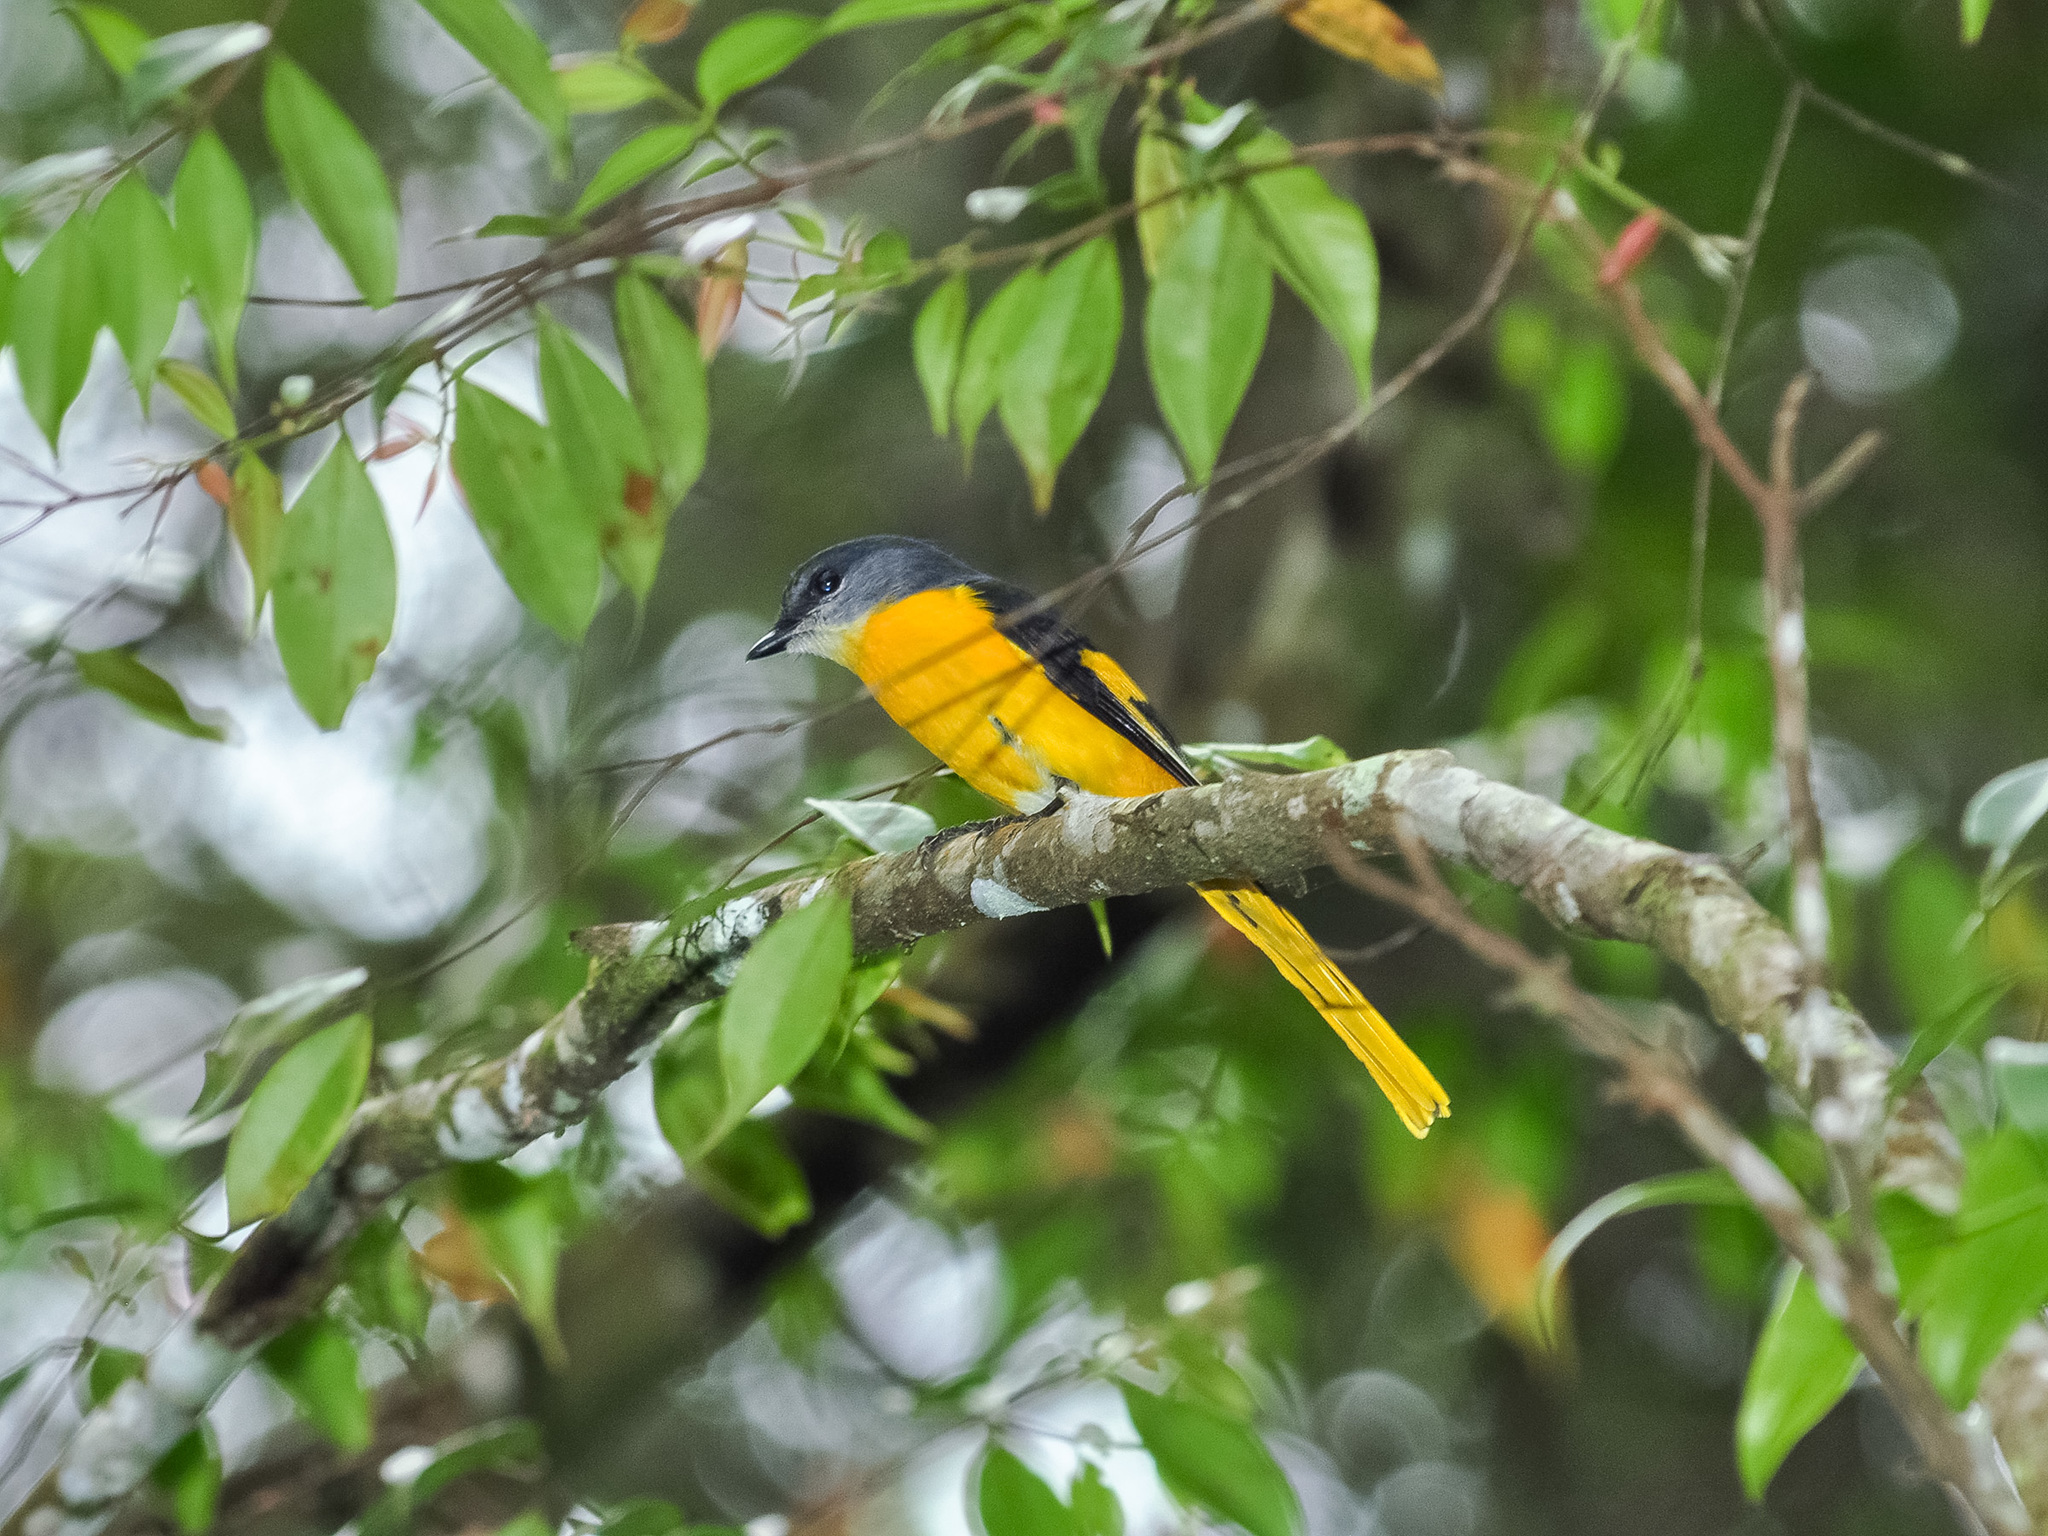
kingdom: Animalia
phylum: Chordata
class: Aves
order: Passeriformes
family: Campephagidae
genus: Pericrocotus
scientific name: Pericrocotus solaris
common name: Grey-chinned minivet
